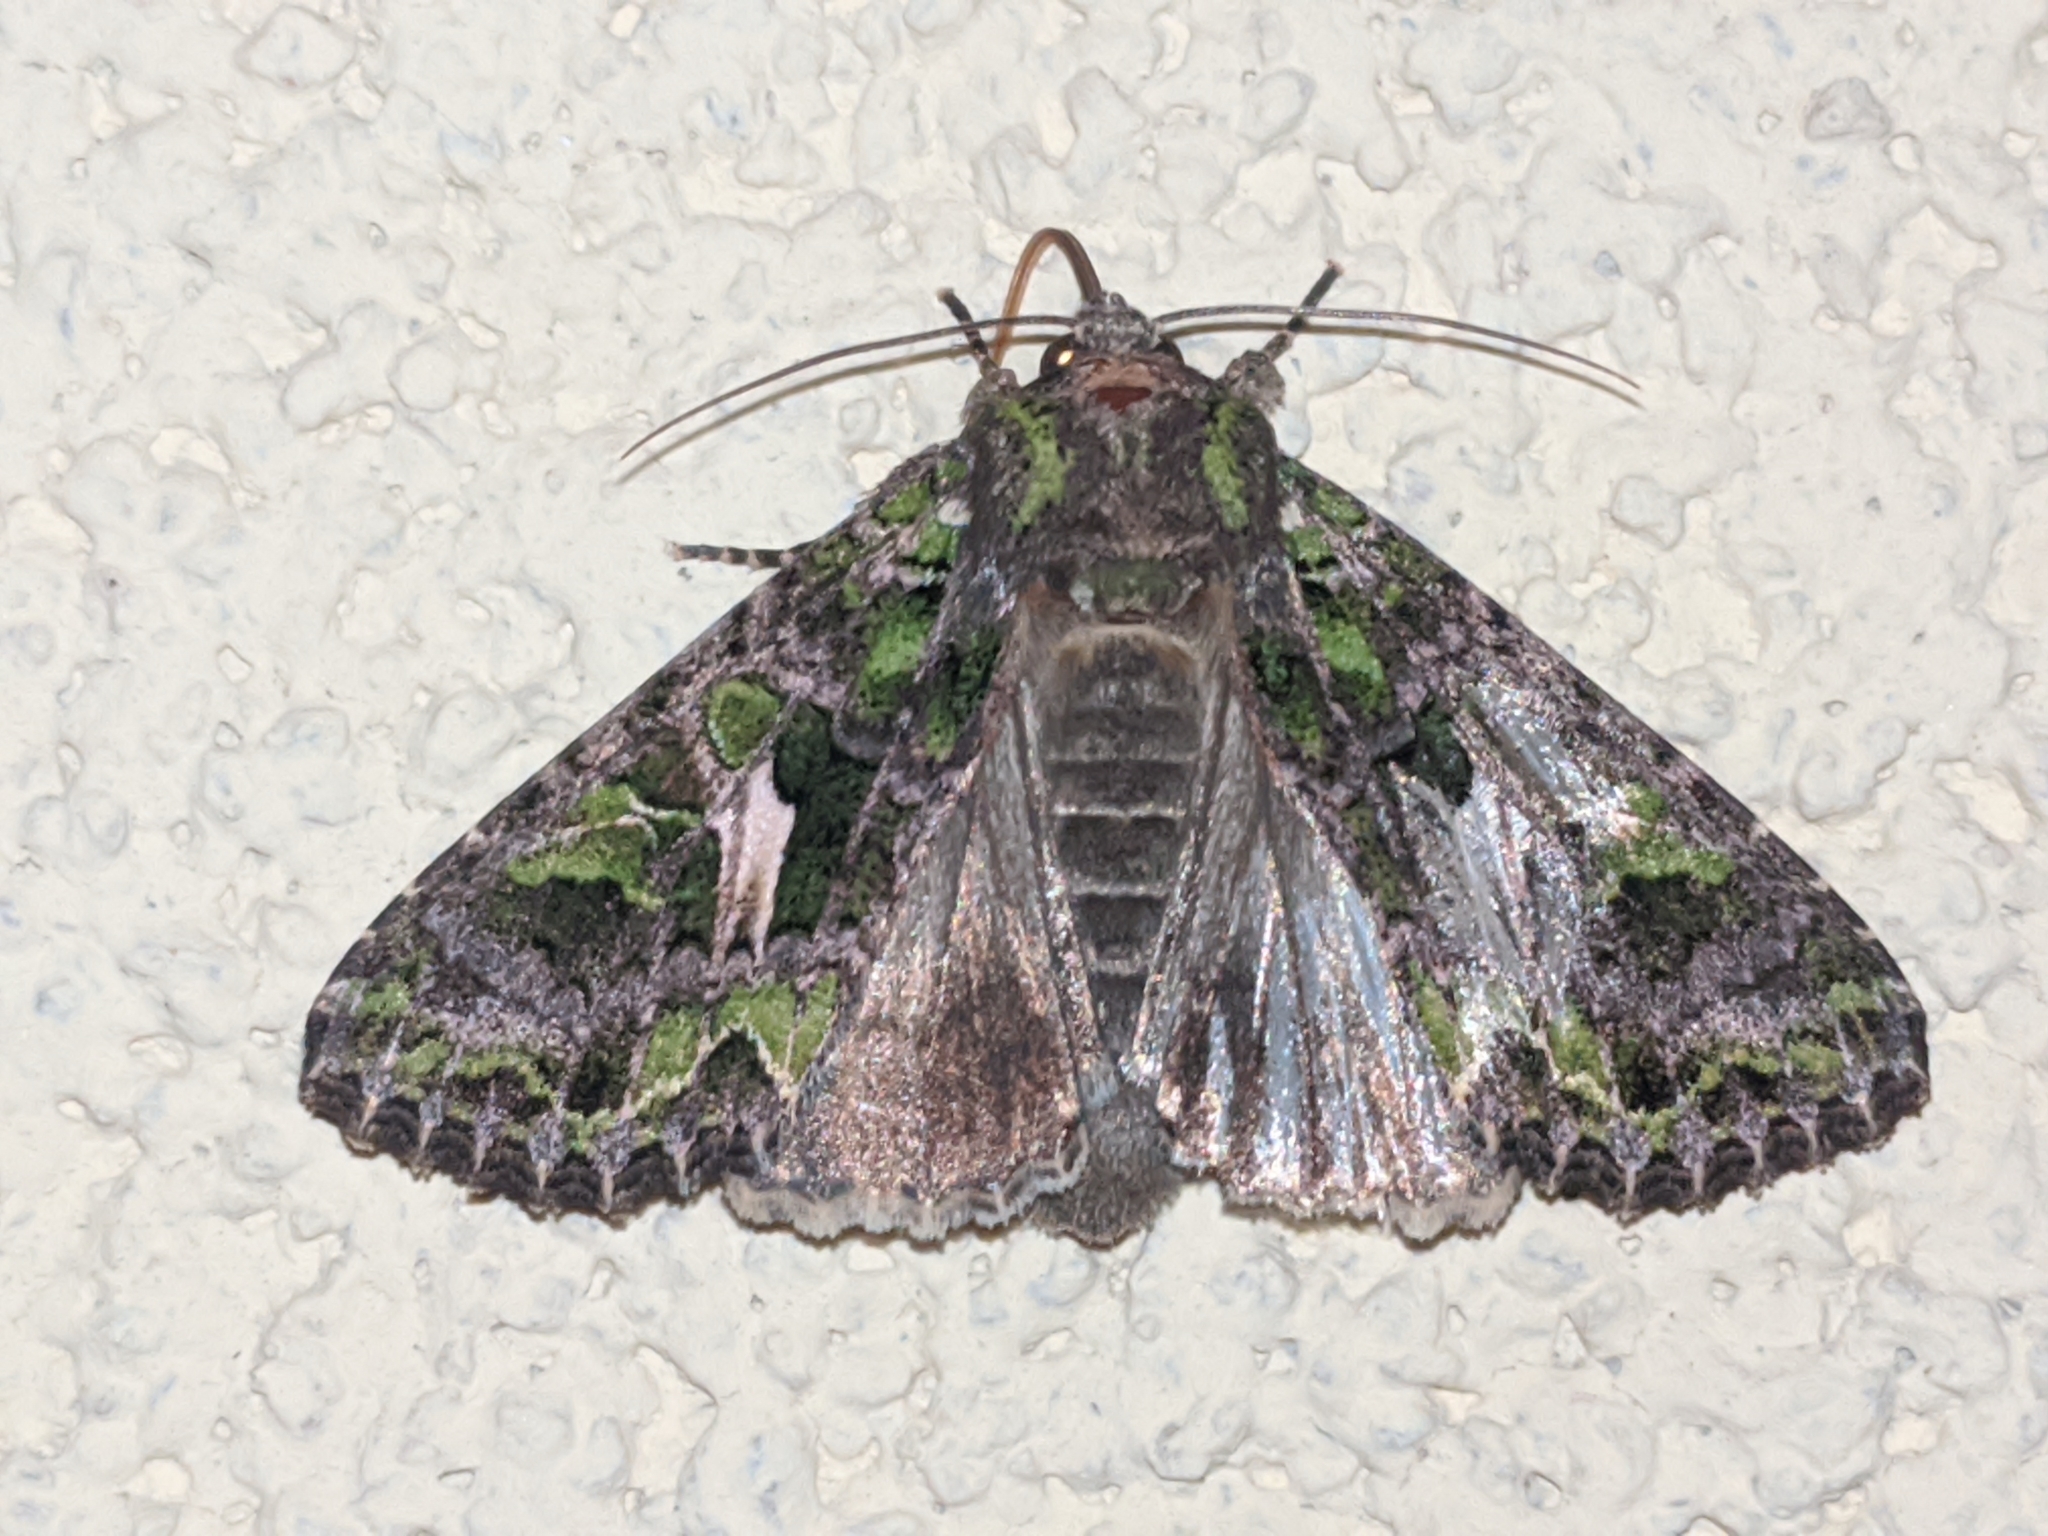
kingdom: Animalia
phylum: Arthropoda
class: Insecta
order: Lepidoptera
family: Noctuidae
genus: Trachea
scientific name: Trachea atriplicis
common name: Orache moth
